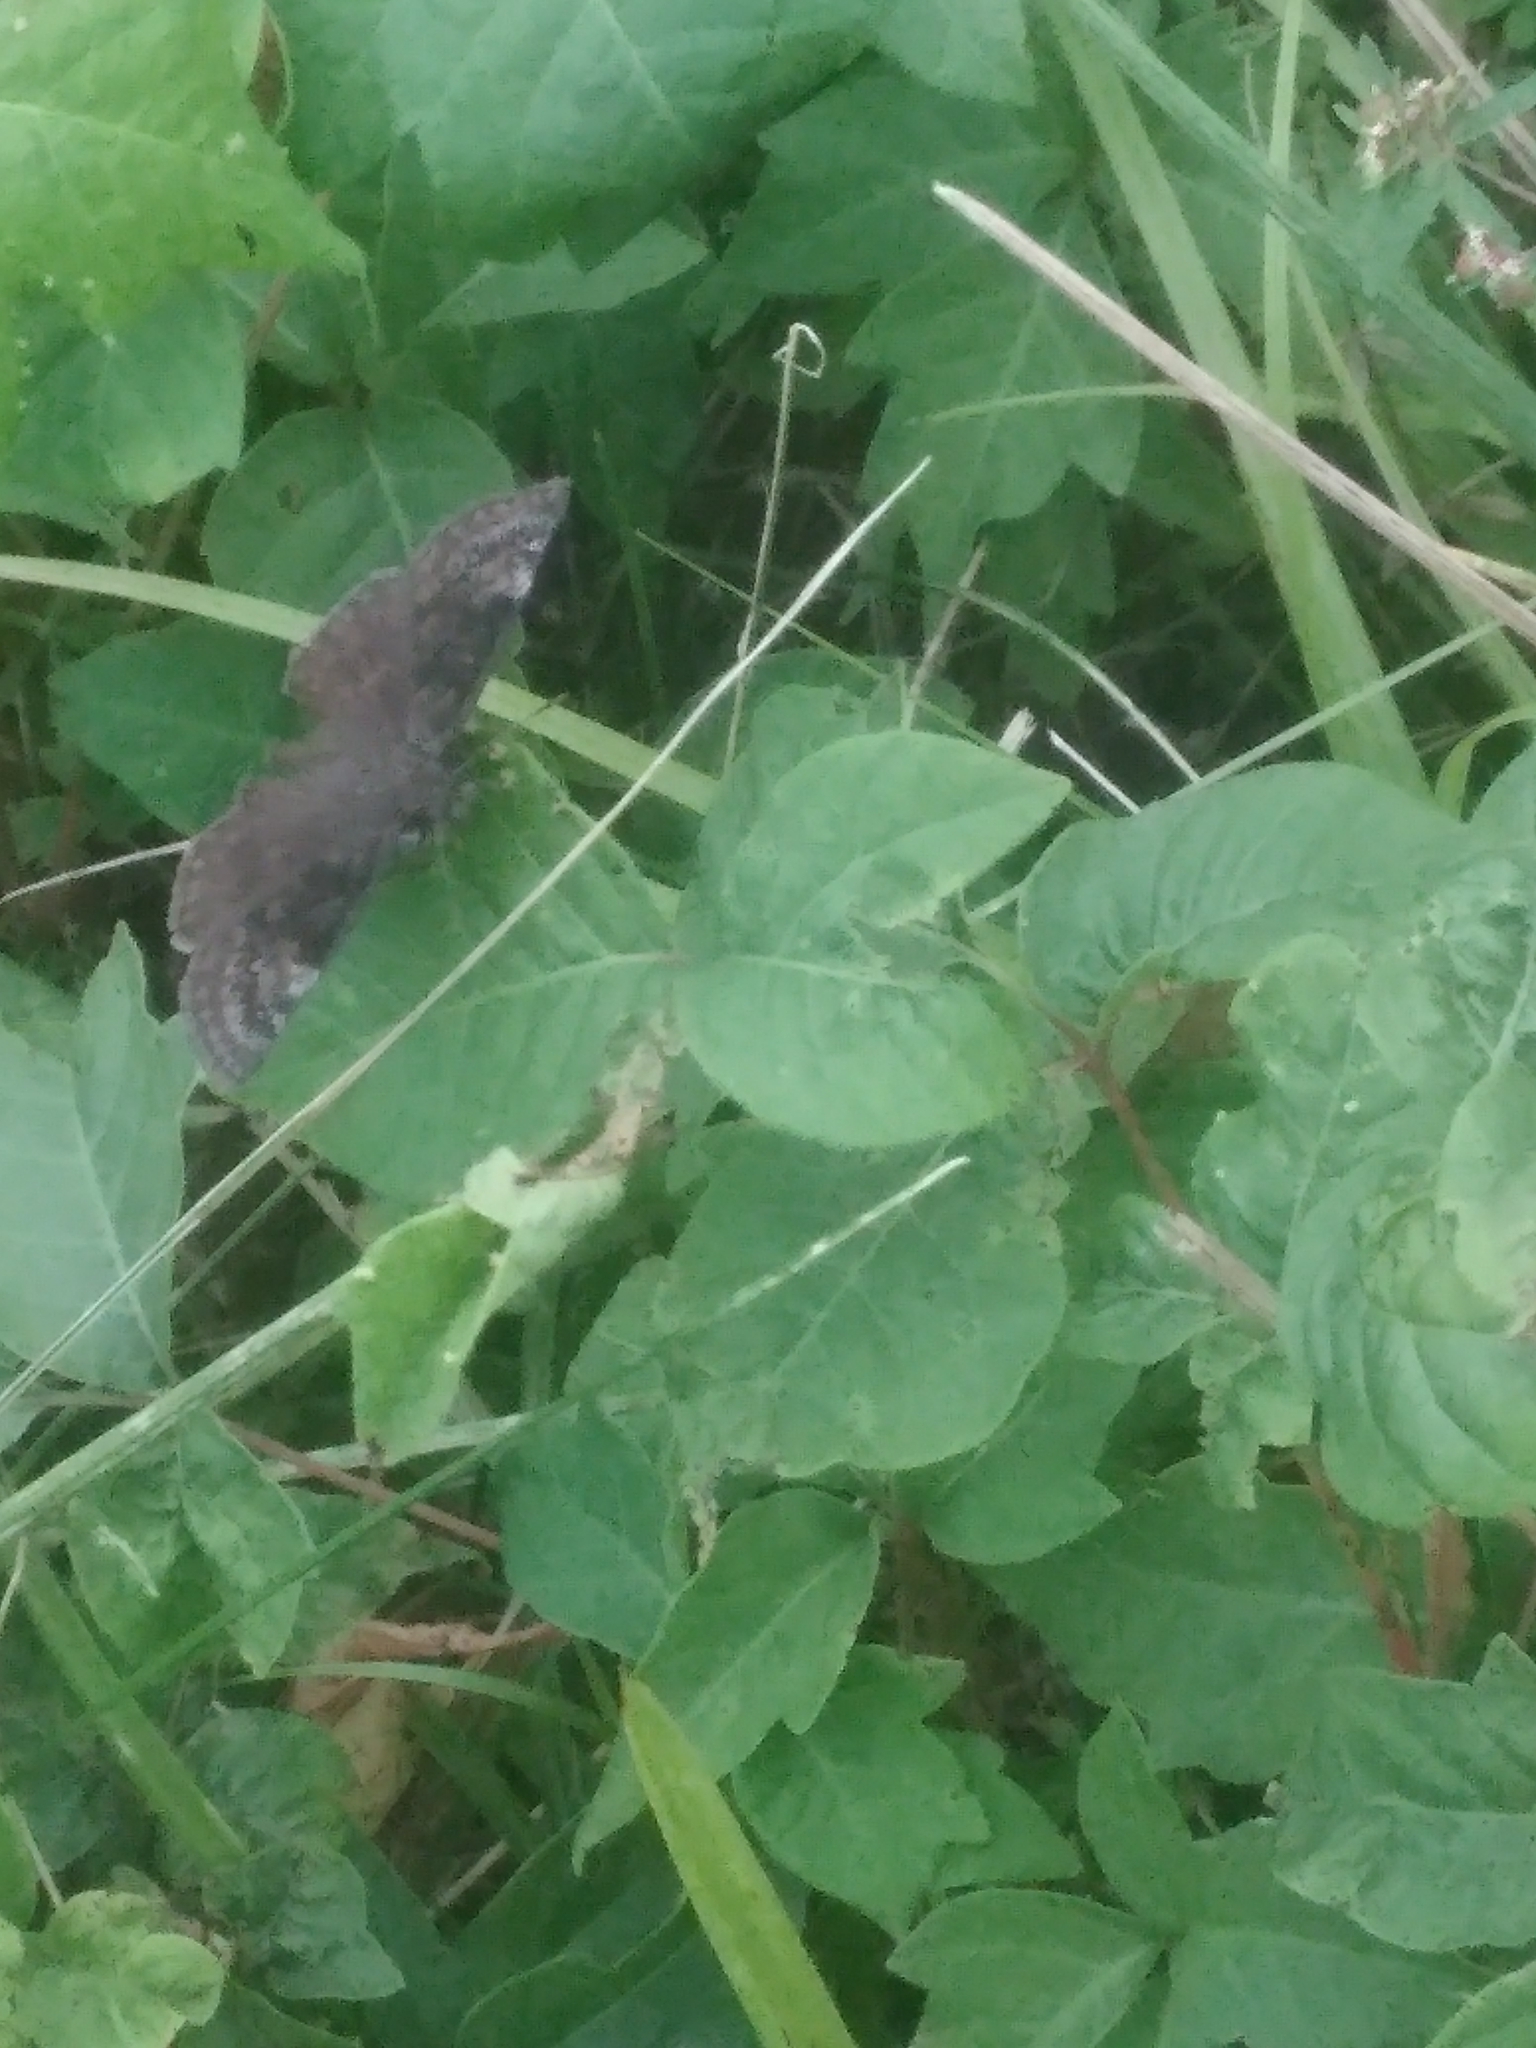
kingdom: Animalia
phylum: Arthropoda
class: Insecta
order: Lepidoptera
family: Hesperiidae
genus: Erynnis
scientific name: Erynnis baptisiae
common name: Wild indigo duskywing
